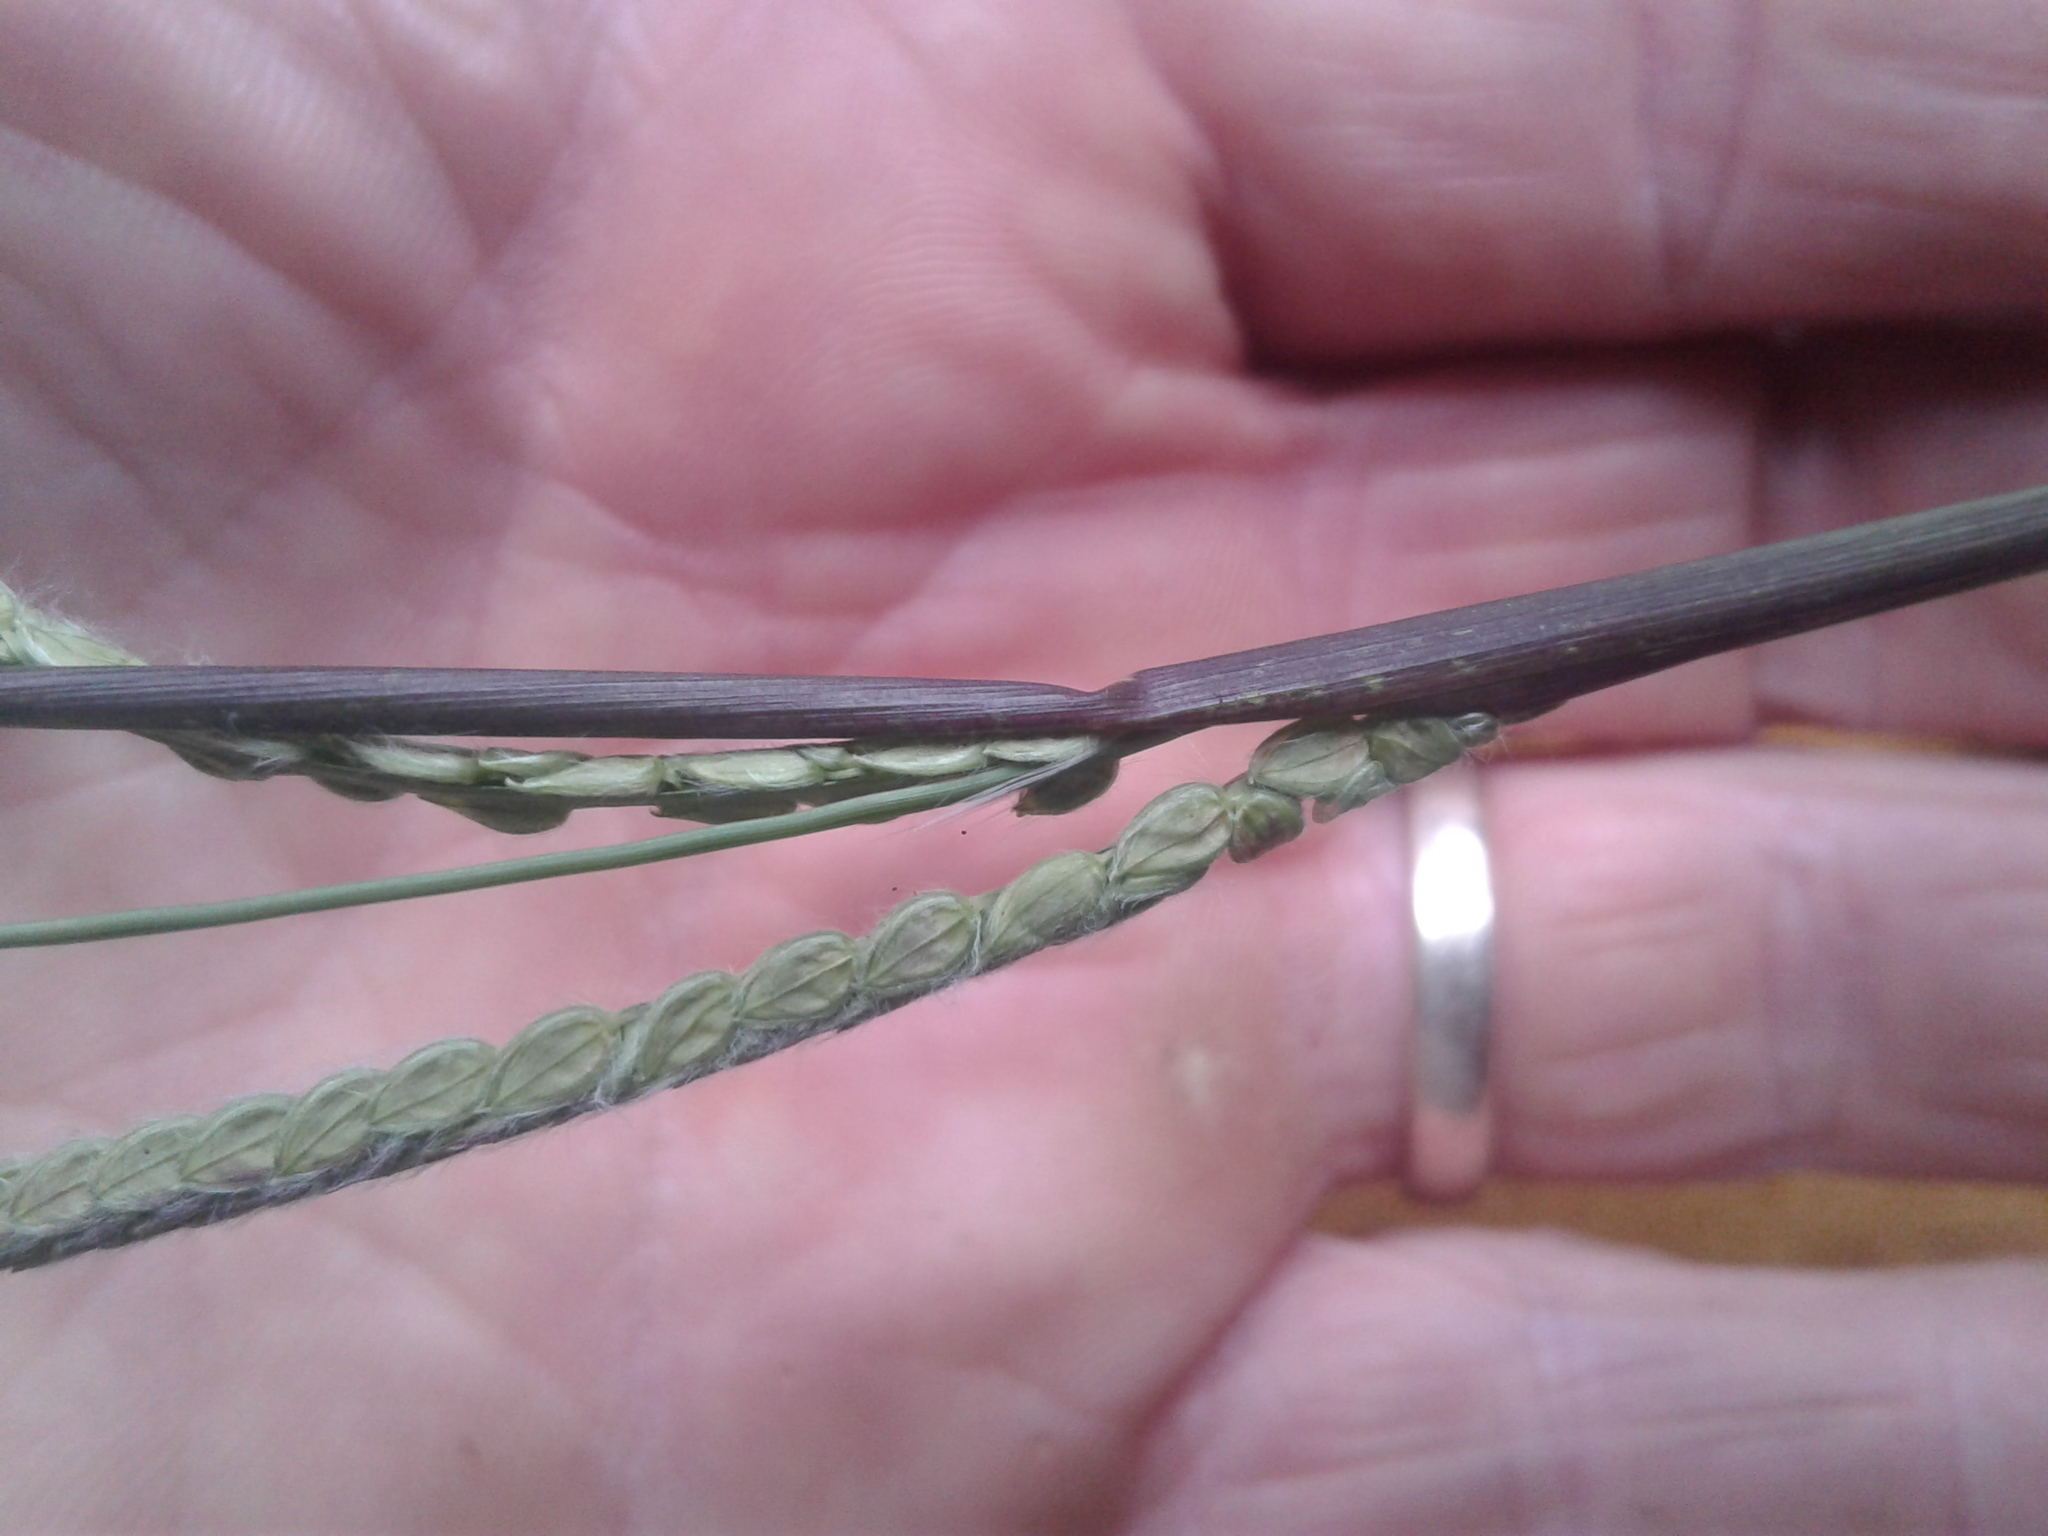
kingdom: Plantae
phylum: Tracheophyta
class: Liliopsida
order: Poales
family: Poaceae
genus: Paspalum
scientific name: Paspalum
